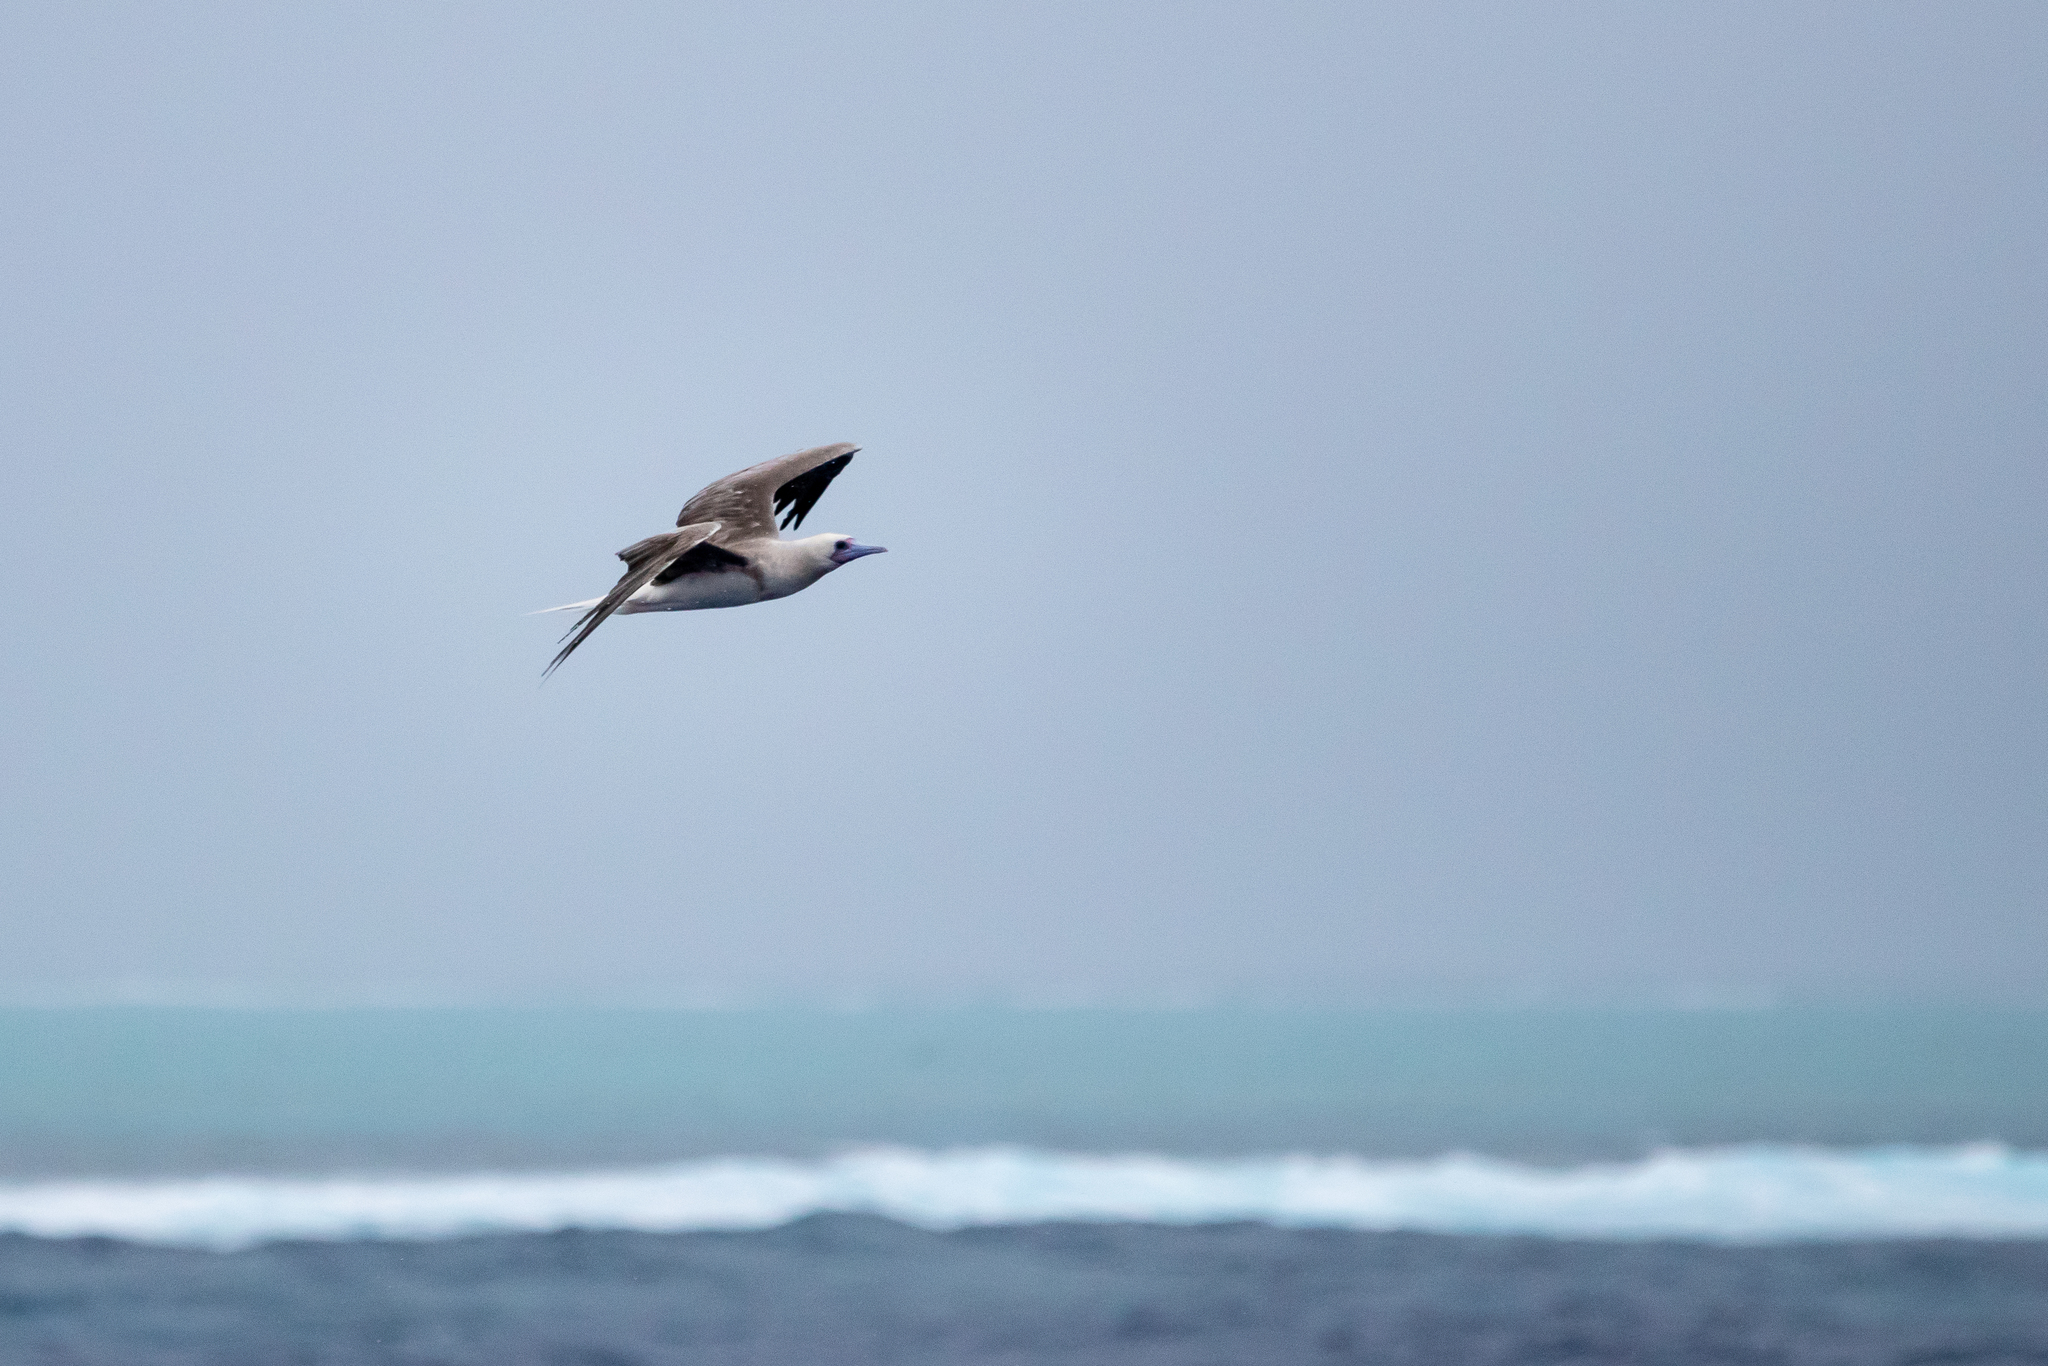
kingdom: Animalia
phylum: Chordata
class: Aves
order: Suliformes
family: Sulidae
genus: Sula
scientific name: Sula sula
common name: Red-footed booby
